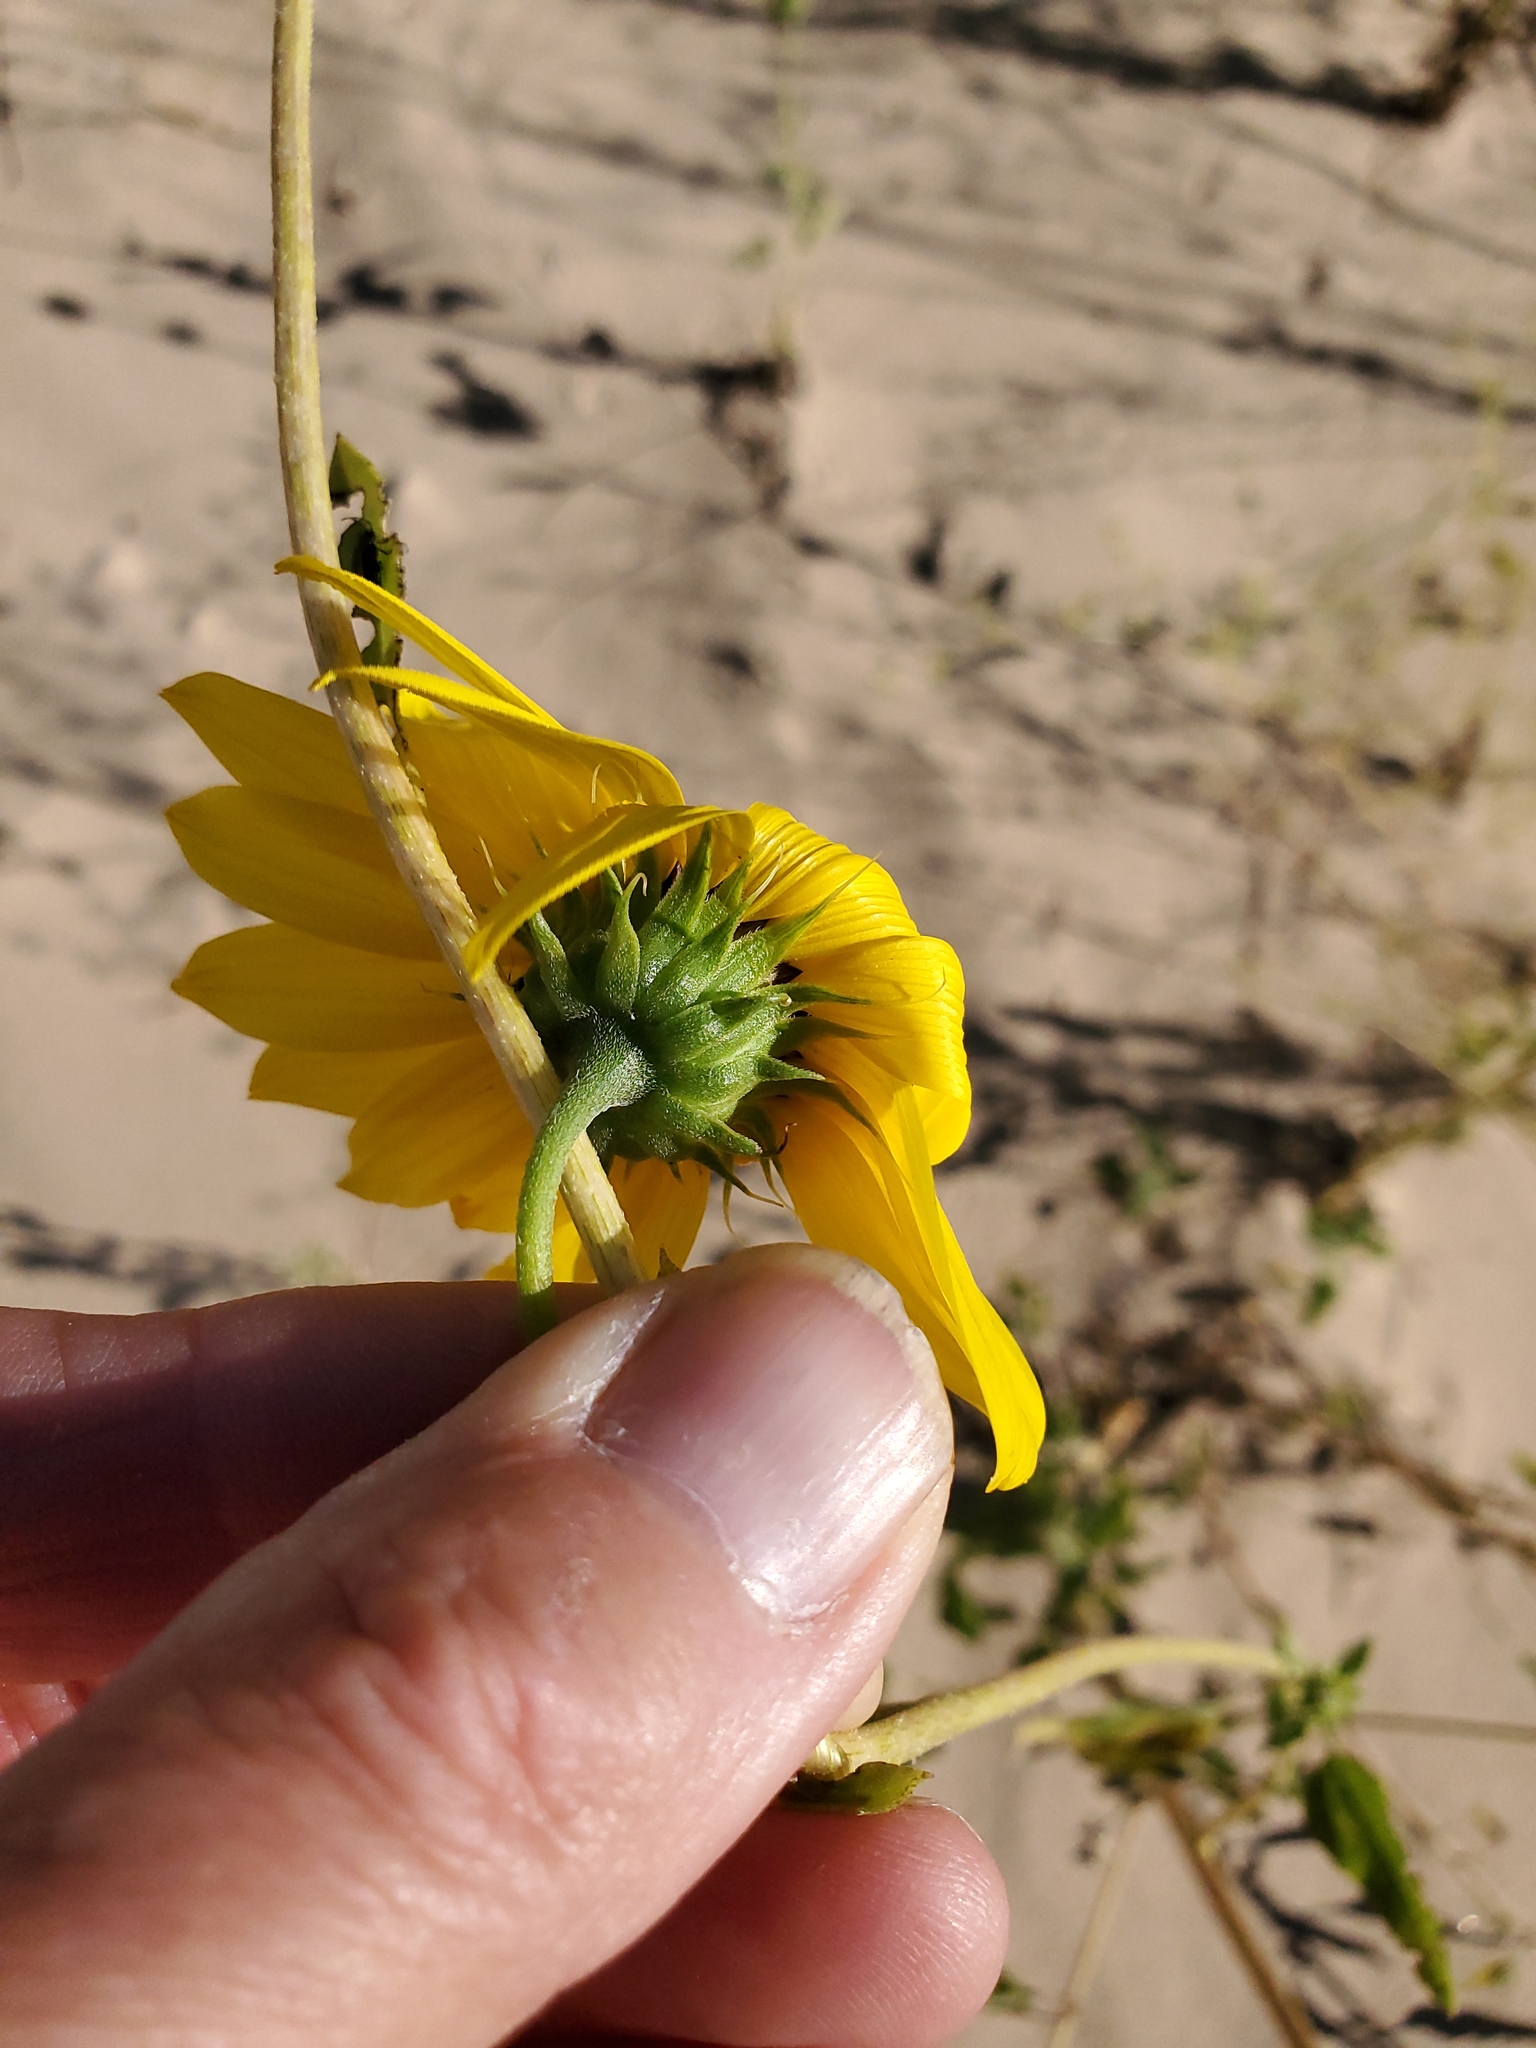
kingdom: Plantae
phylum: Tracheophyta
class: Magnoliopsida
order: Asterales
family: Asteraceae
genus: Helianthus
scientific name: Helianthus neglectus
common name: Neglected sunflower
